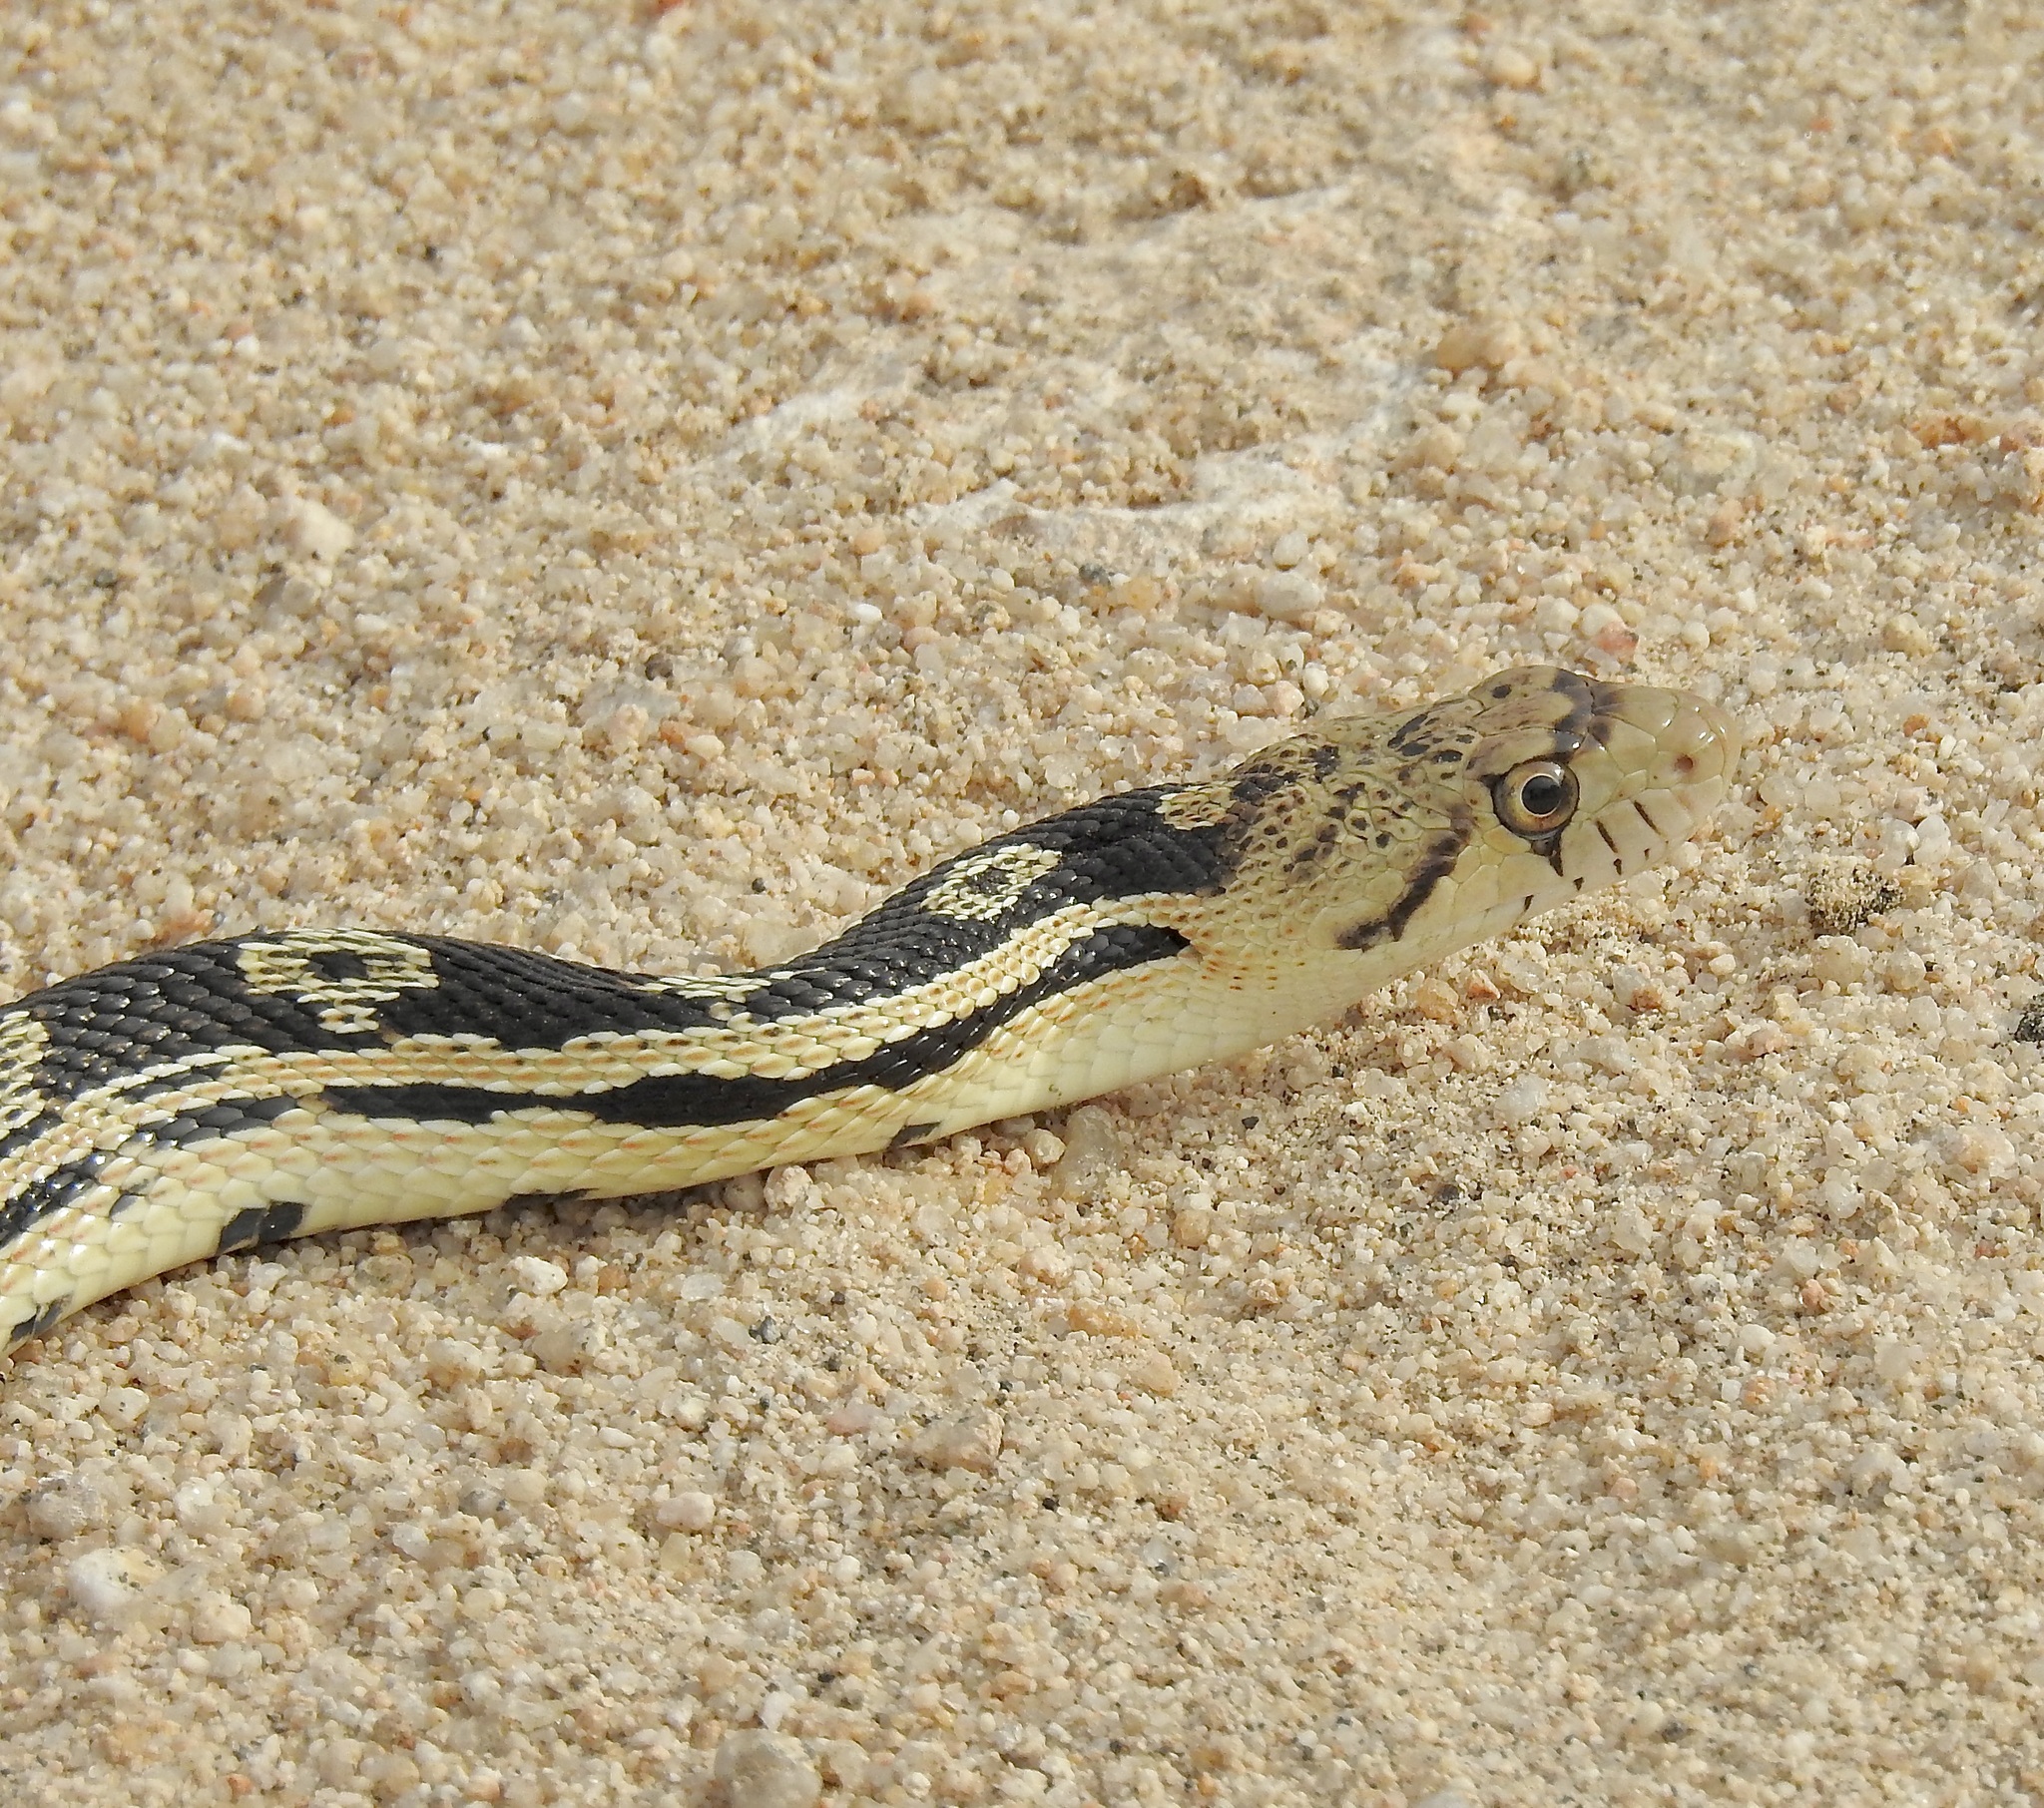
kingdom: Animalia
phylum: Chordata
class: Squamata
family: Colubridae
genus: Pituophis
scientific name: Pituophis catenifer
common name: Gopher snake
